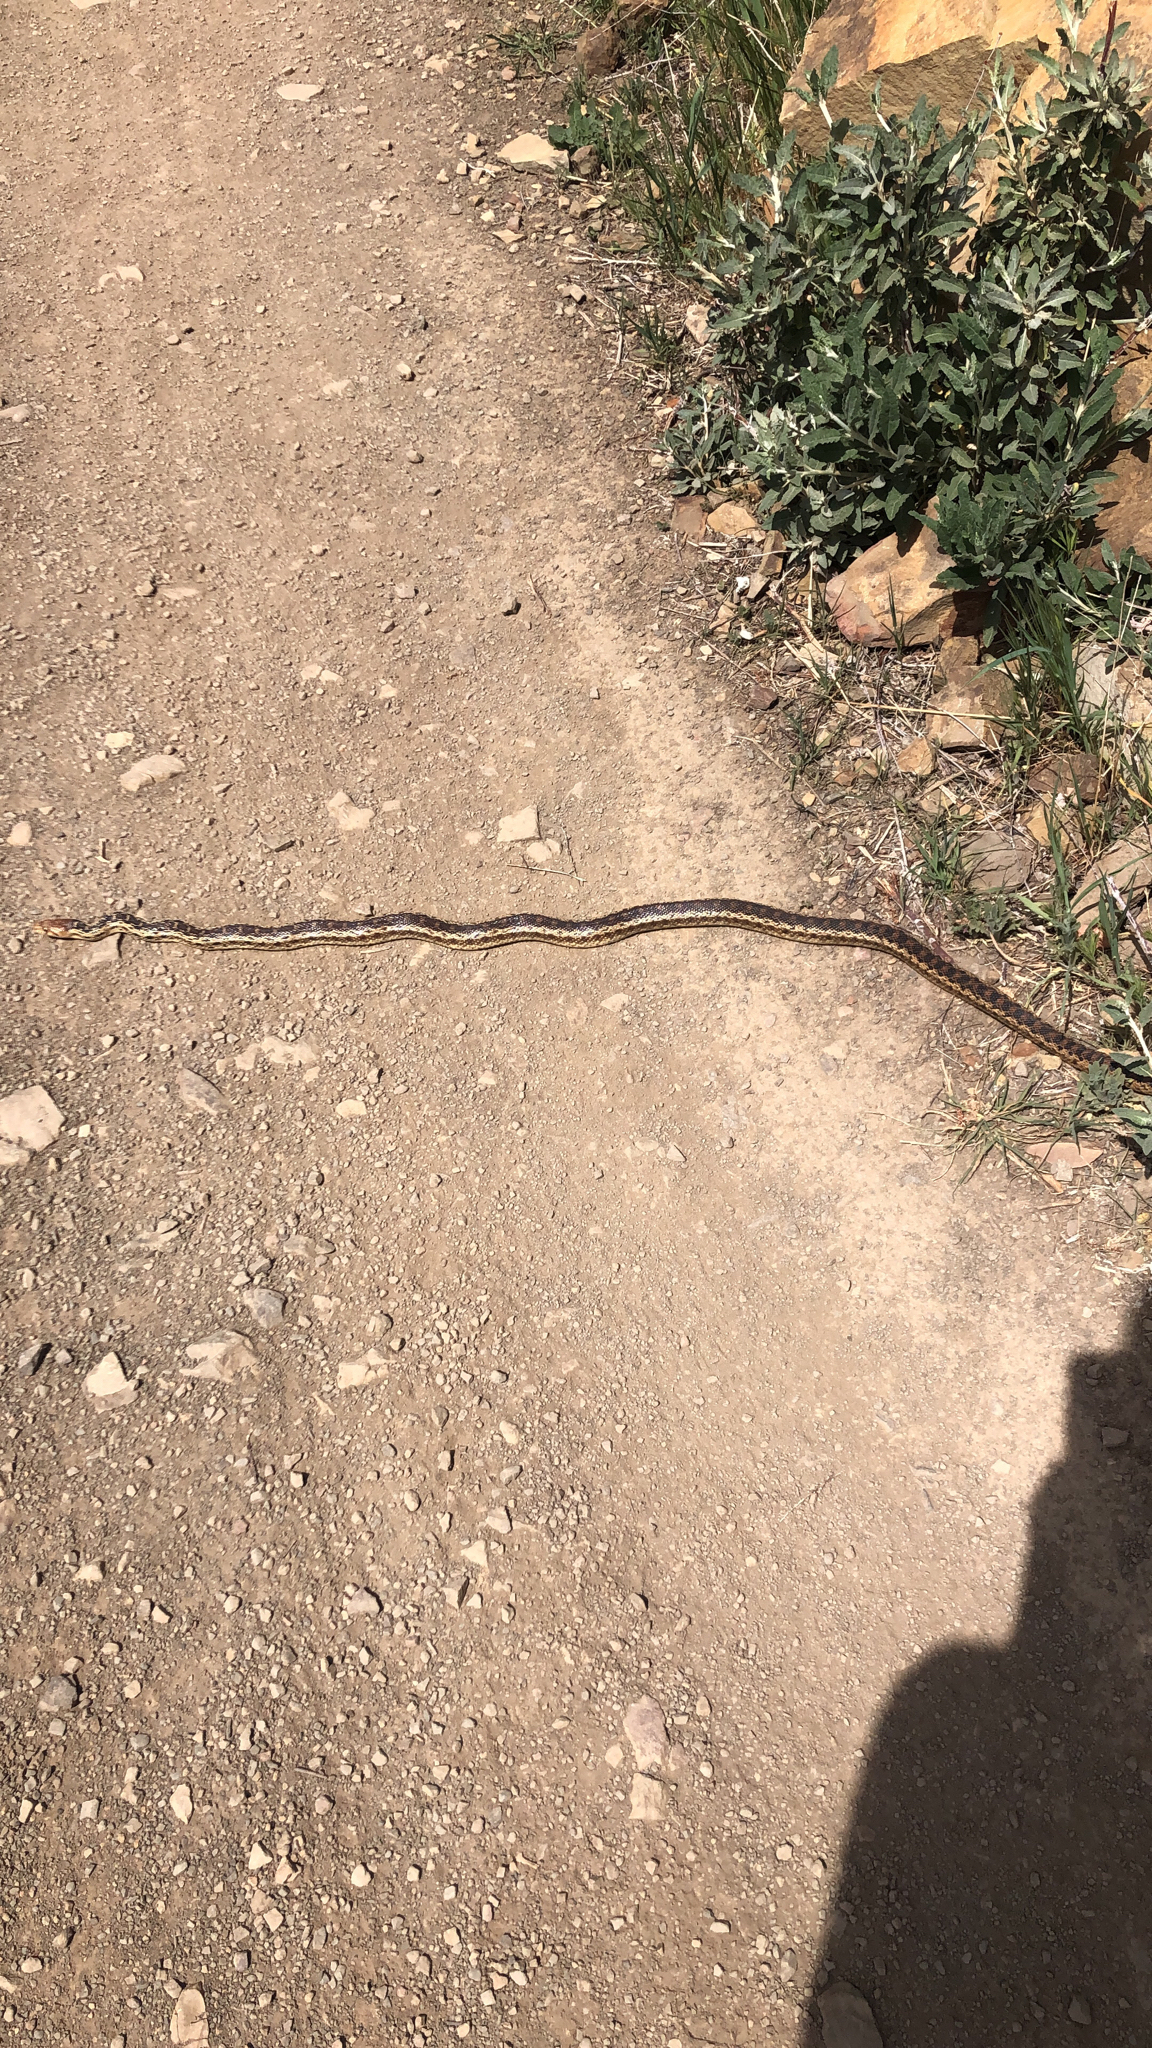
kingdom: Animalia
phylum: Chordata
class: Squamata
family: Colubridae
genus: Pituophis
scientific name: Pituophis catenifer
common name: Gopher snake
